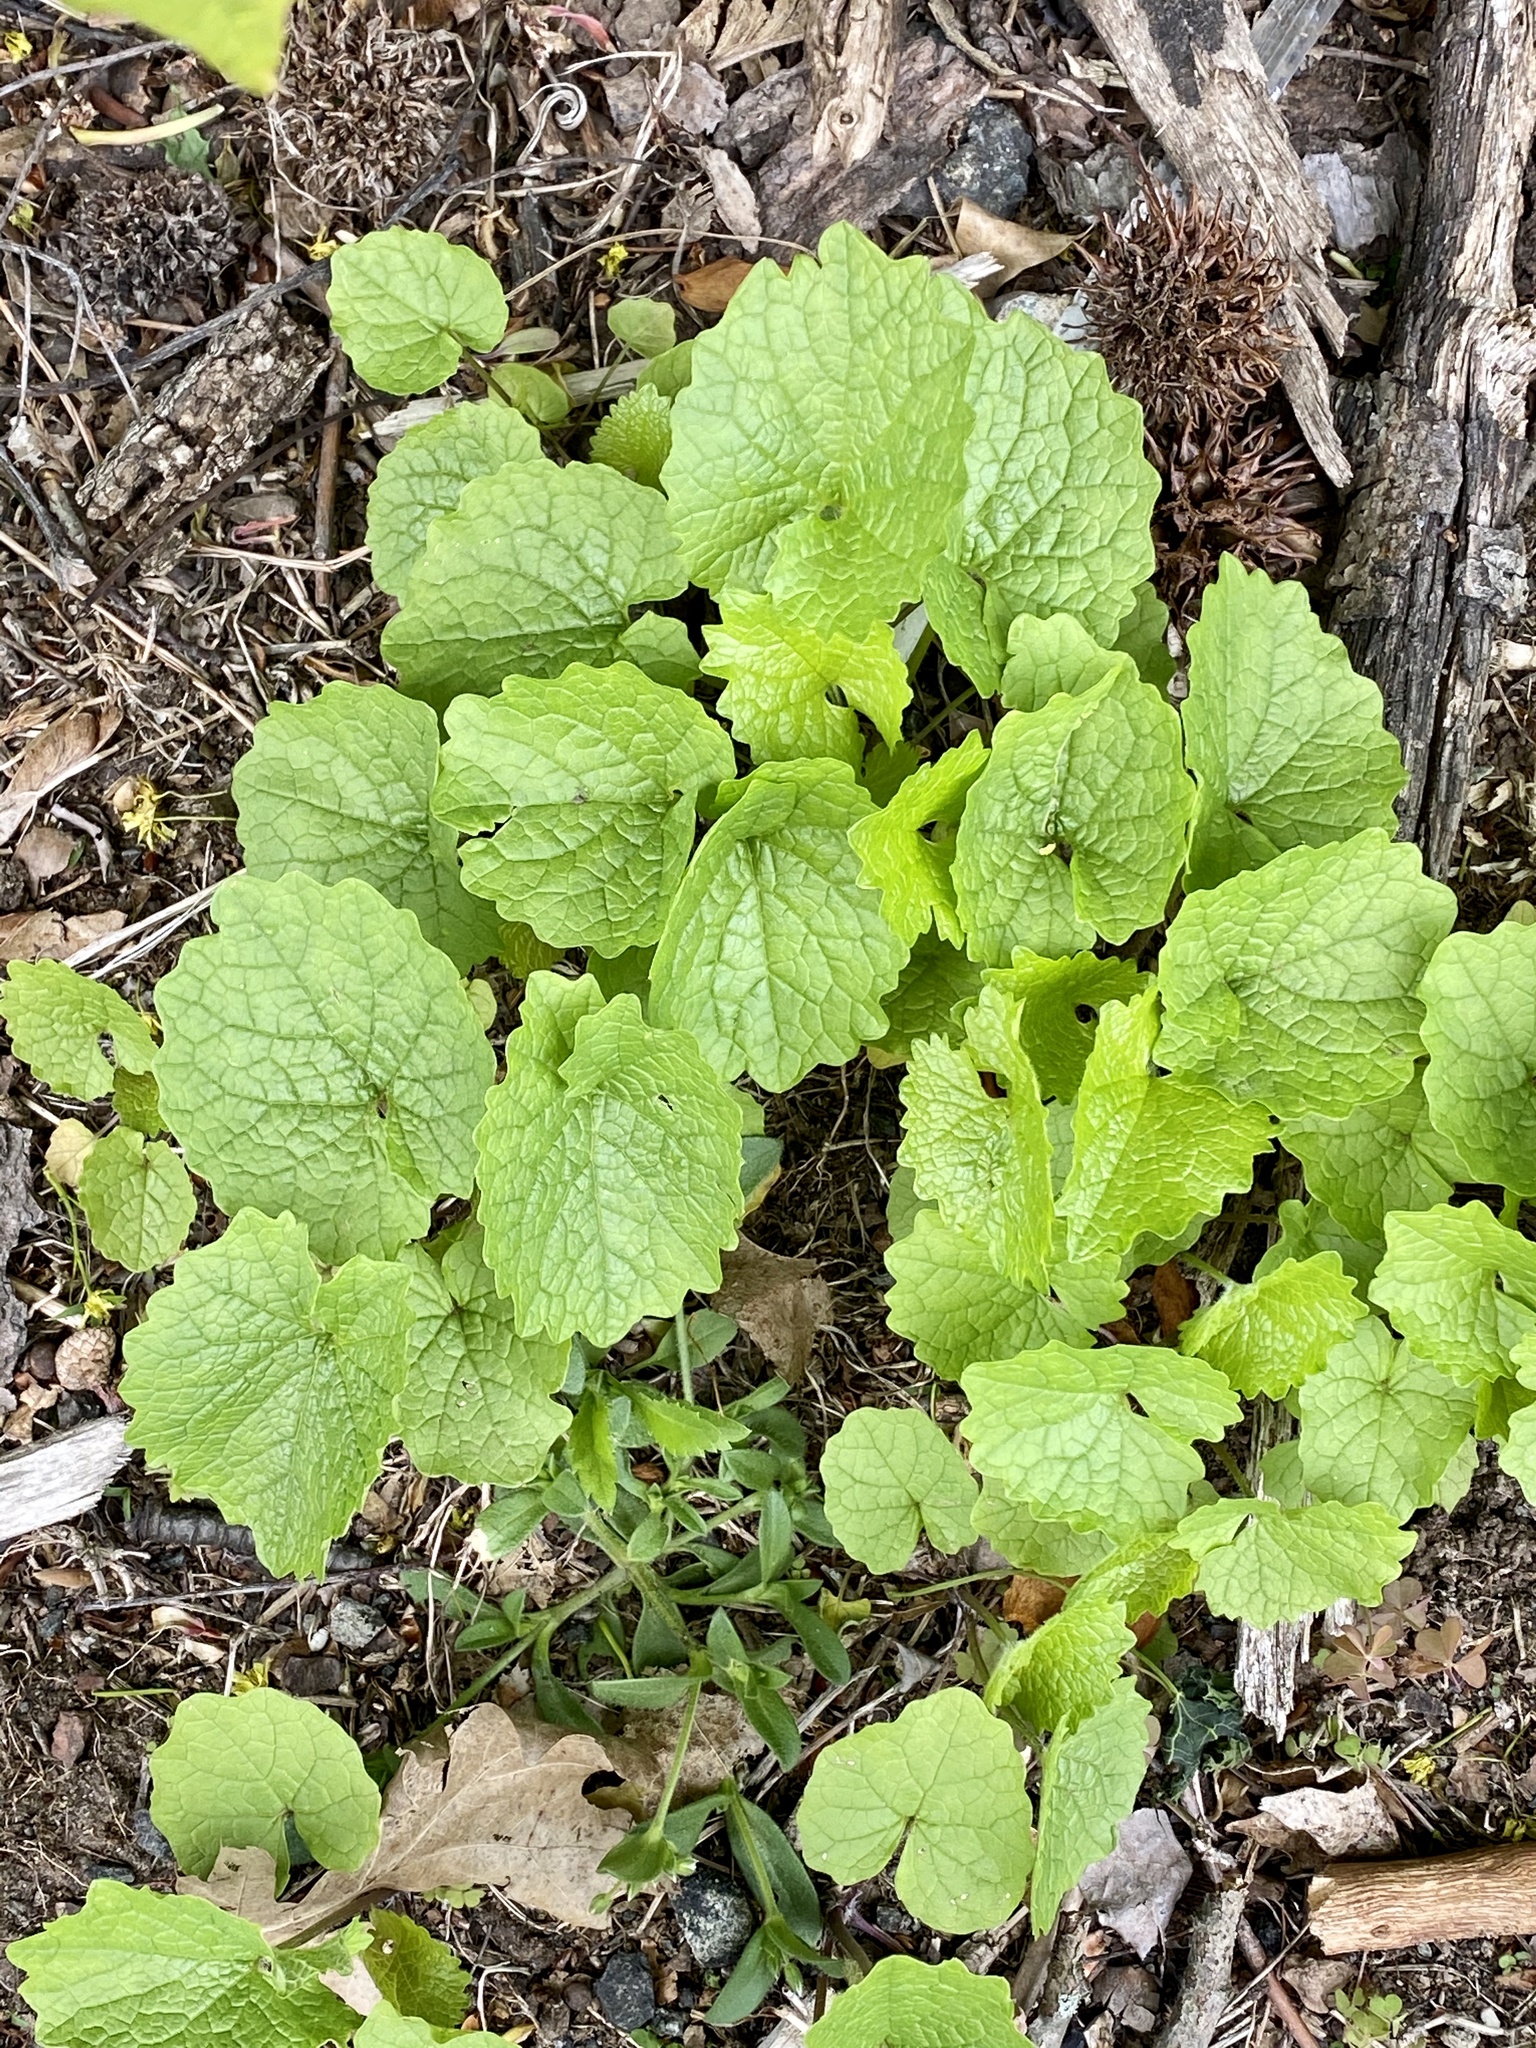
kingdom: Plantae
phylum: Tracheophyta
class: Magnoliopsida
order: Brassicales
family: Brassicaceae
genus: Alliaria
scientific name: Alliaria petiolata
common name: Garlic mustard
